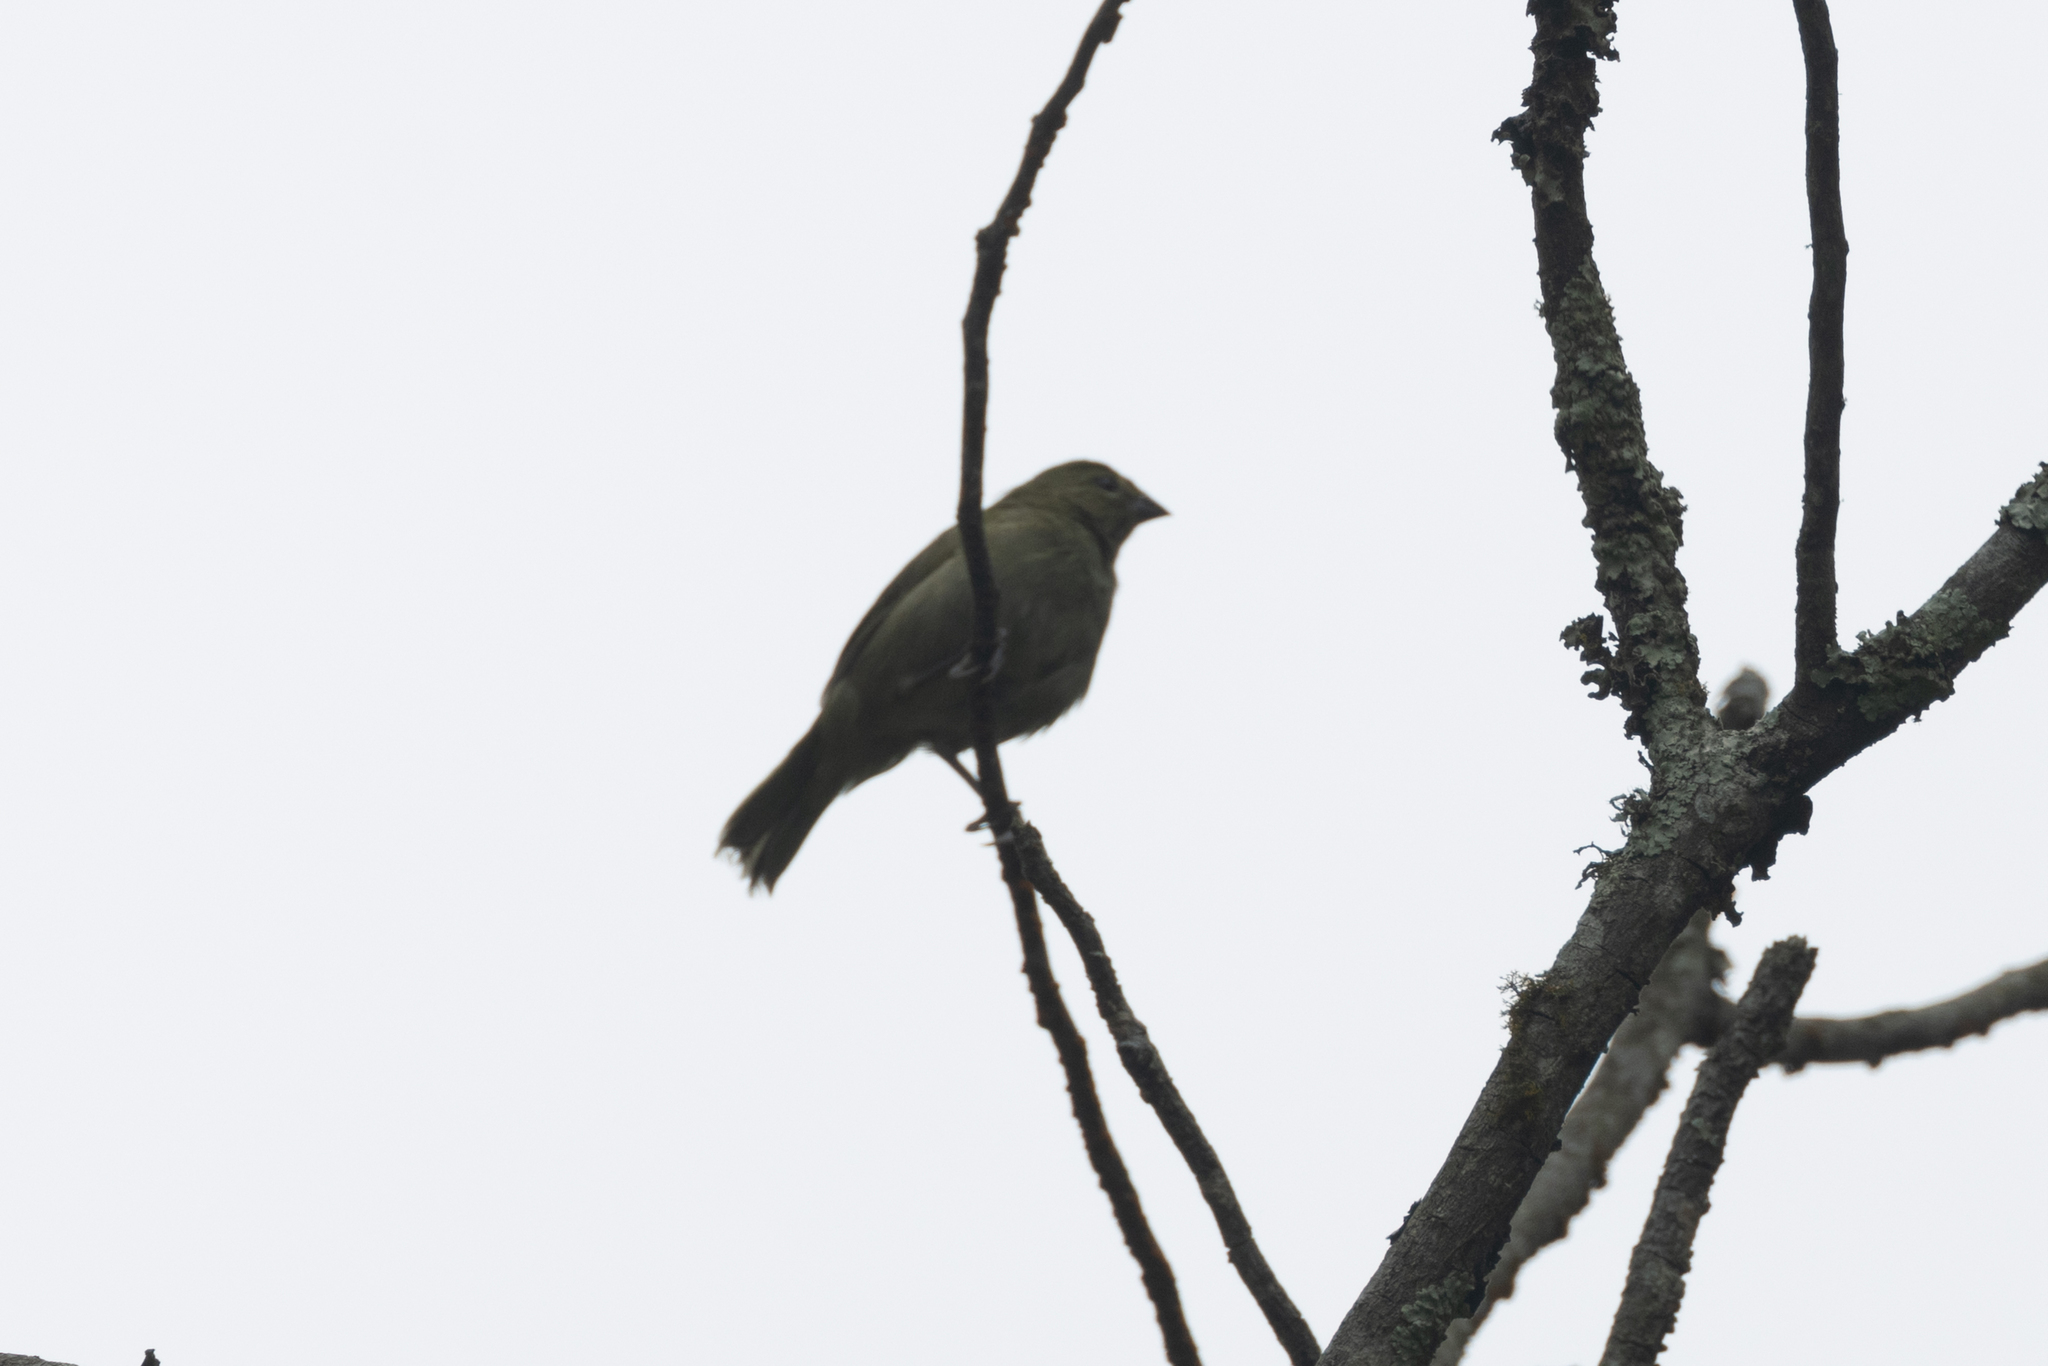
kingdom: Animalia
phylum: Chordata
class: Aves
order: Passeriformes
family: Thraupidae
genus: Tiaris
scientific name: Tiaris olivaceus
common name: Yellow-faced grassquit
